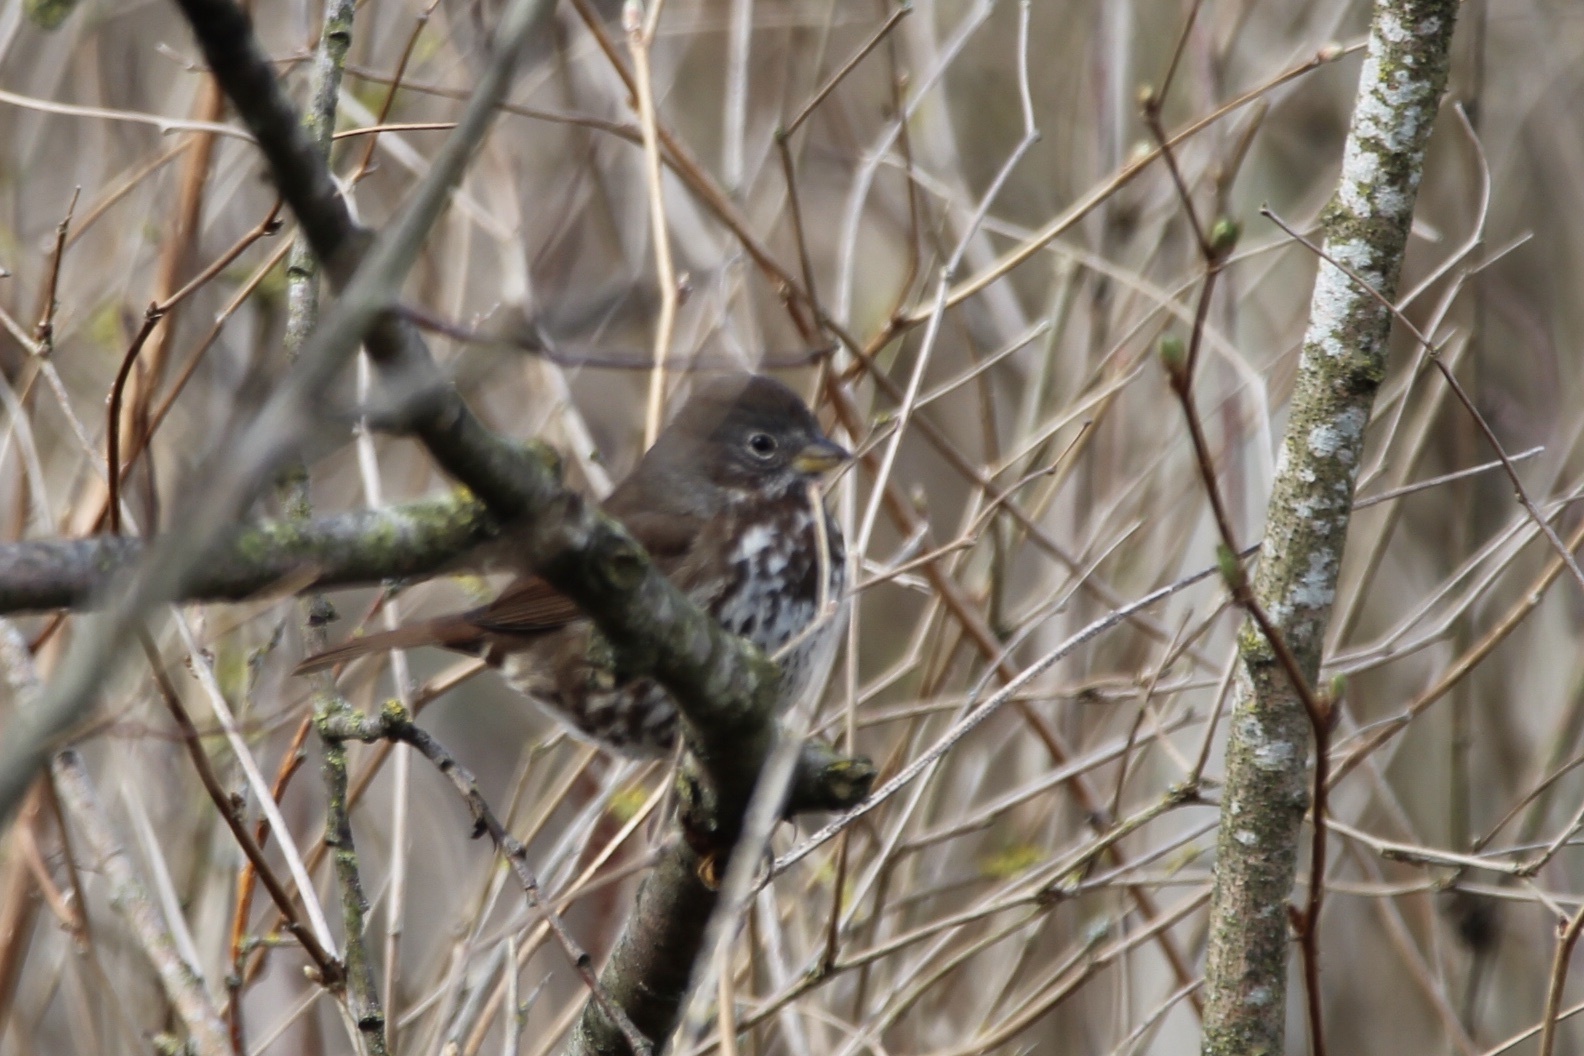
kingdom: Animalia
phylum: Chordata
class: Aves
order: Passeriformes
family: Passerellidae
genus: Passerella
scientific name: Passerella iliaca
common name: Fox sparrow
